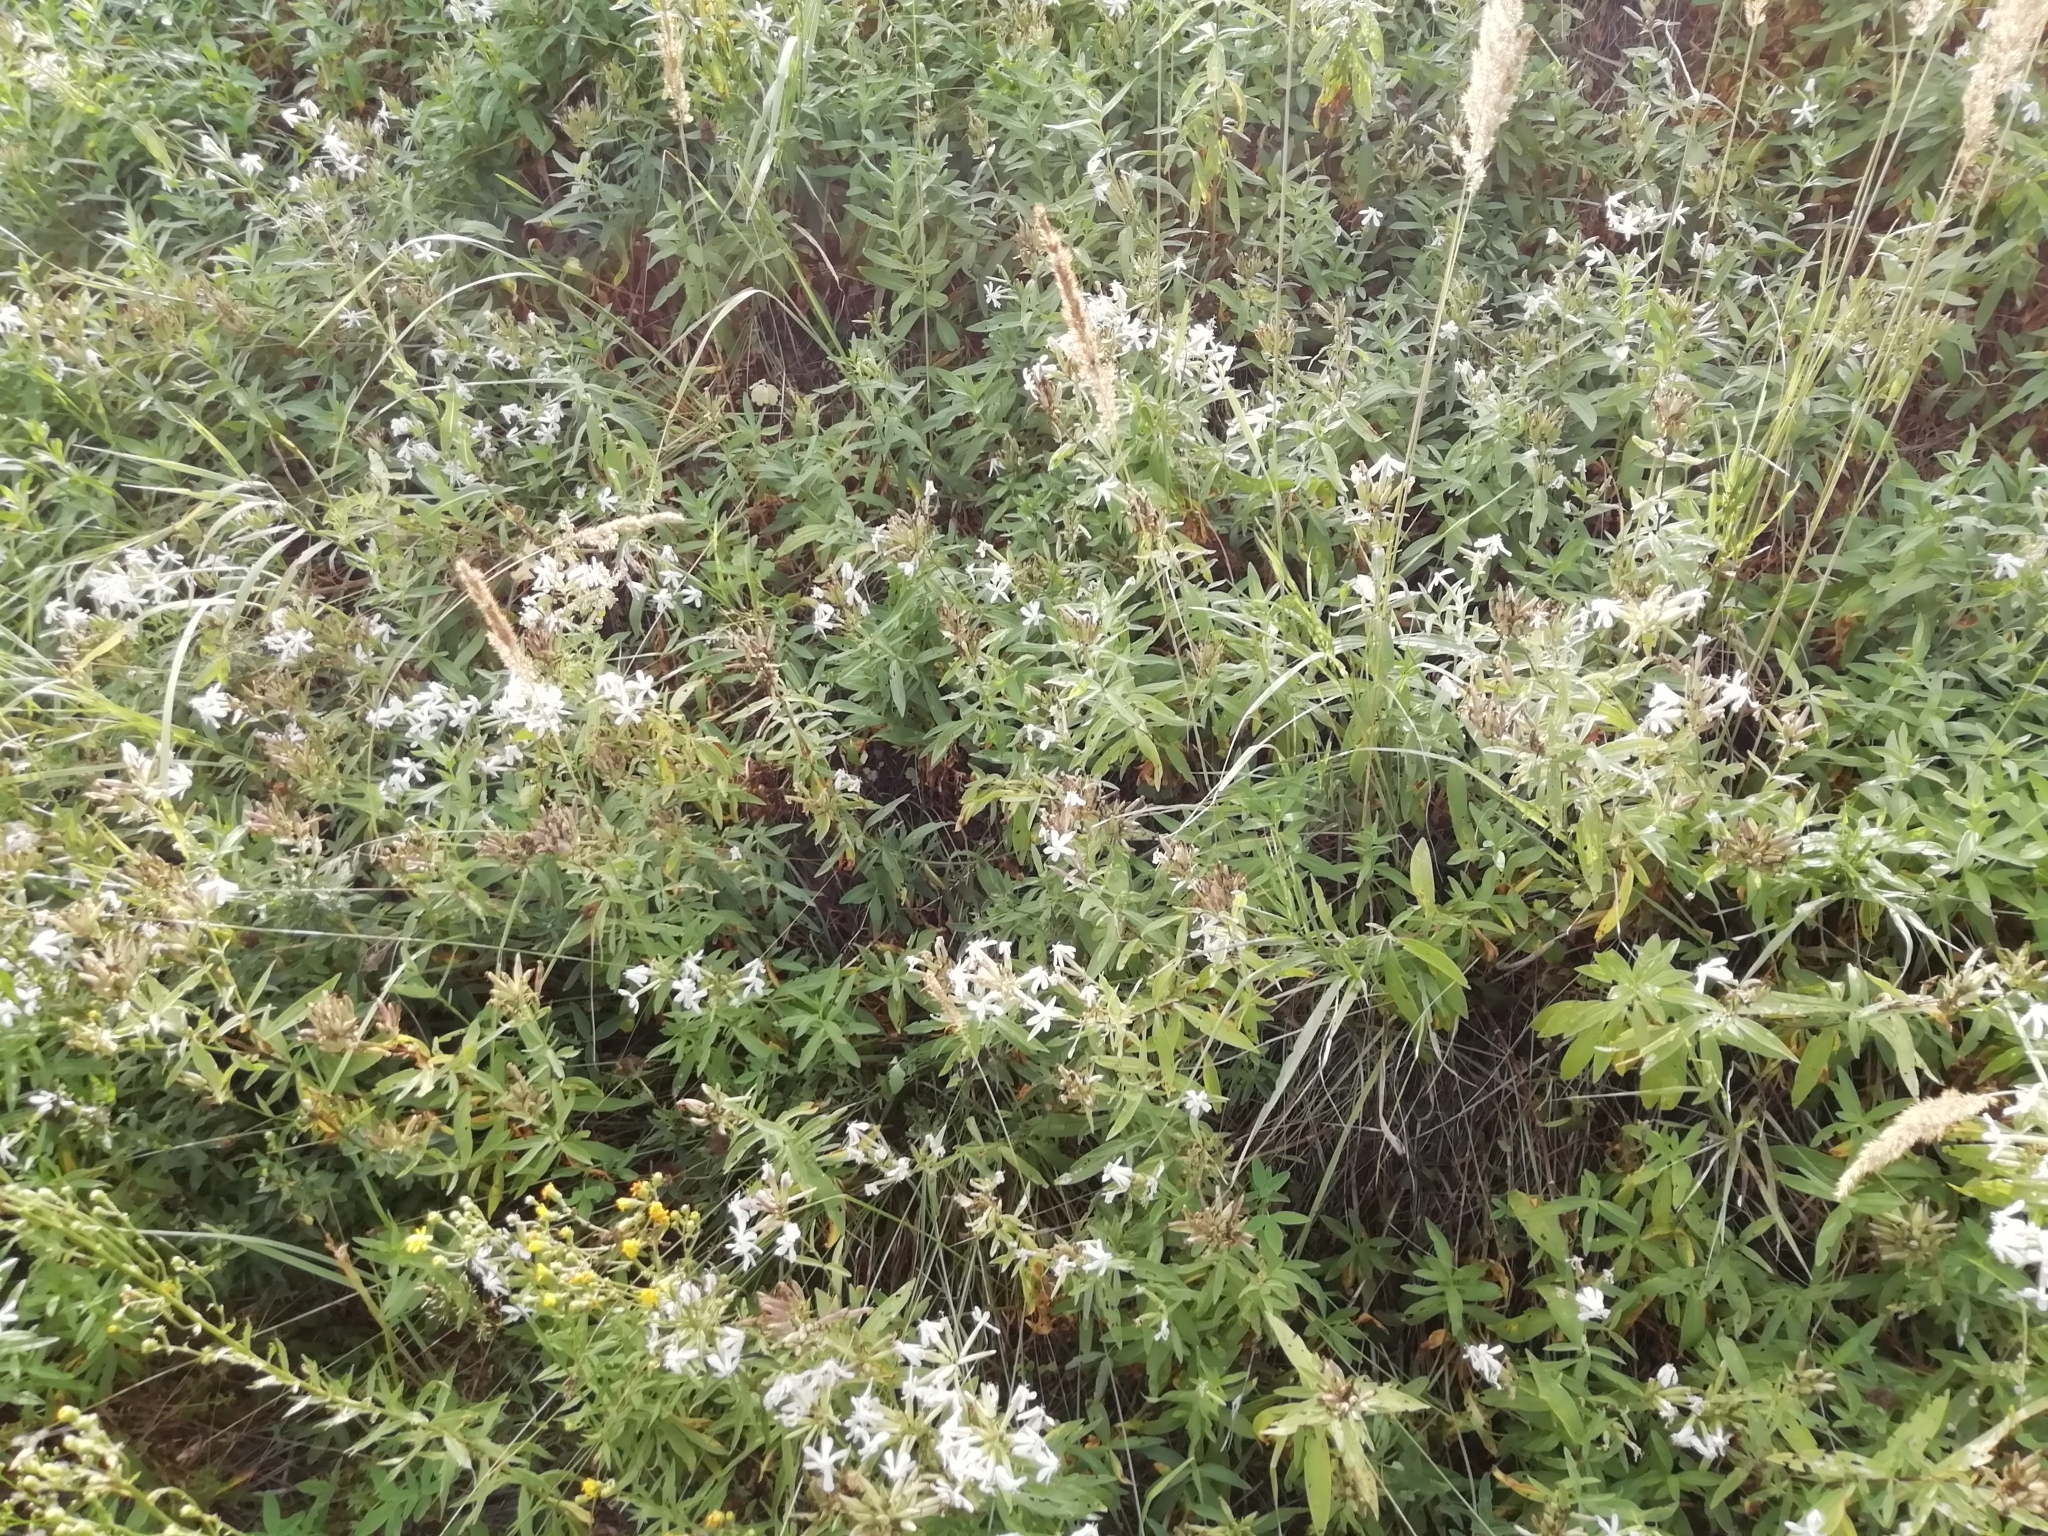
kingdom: Plantae
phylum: Tracheophyta
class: Magnoliopsida
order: Caryophyllales
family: Caryophyllaceae
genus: Saponaria
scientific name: Saponaria officinalis
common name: Soapwort
